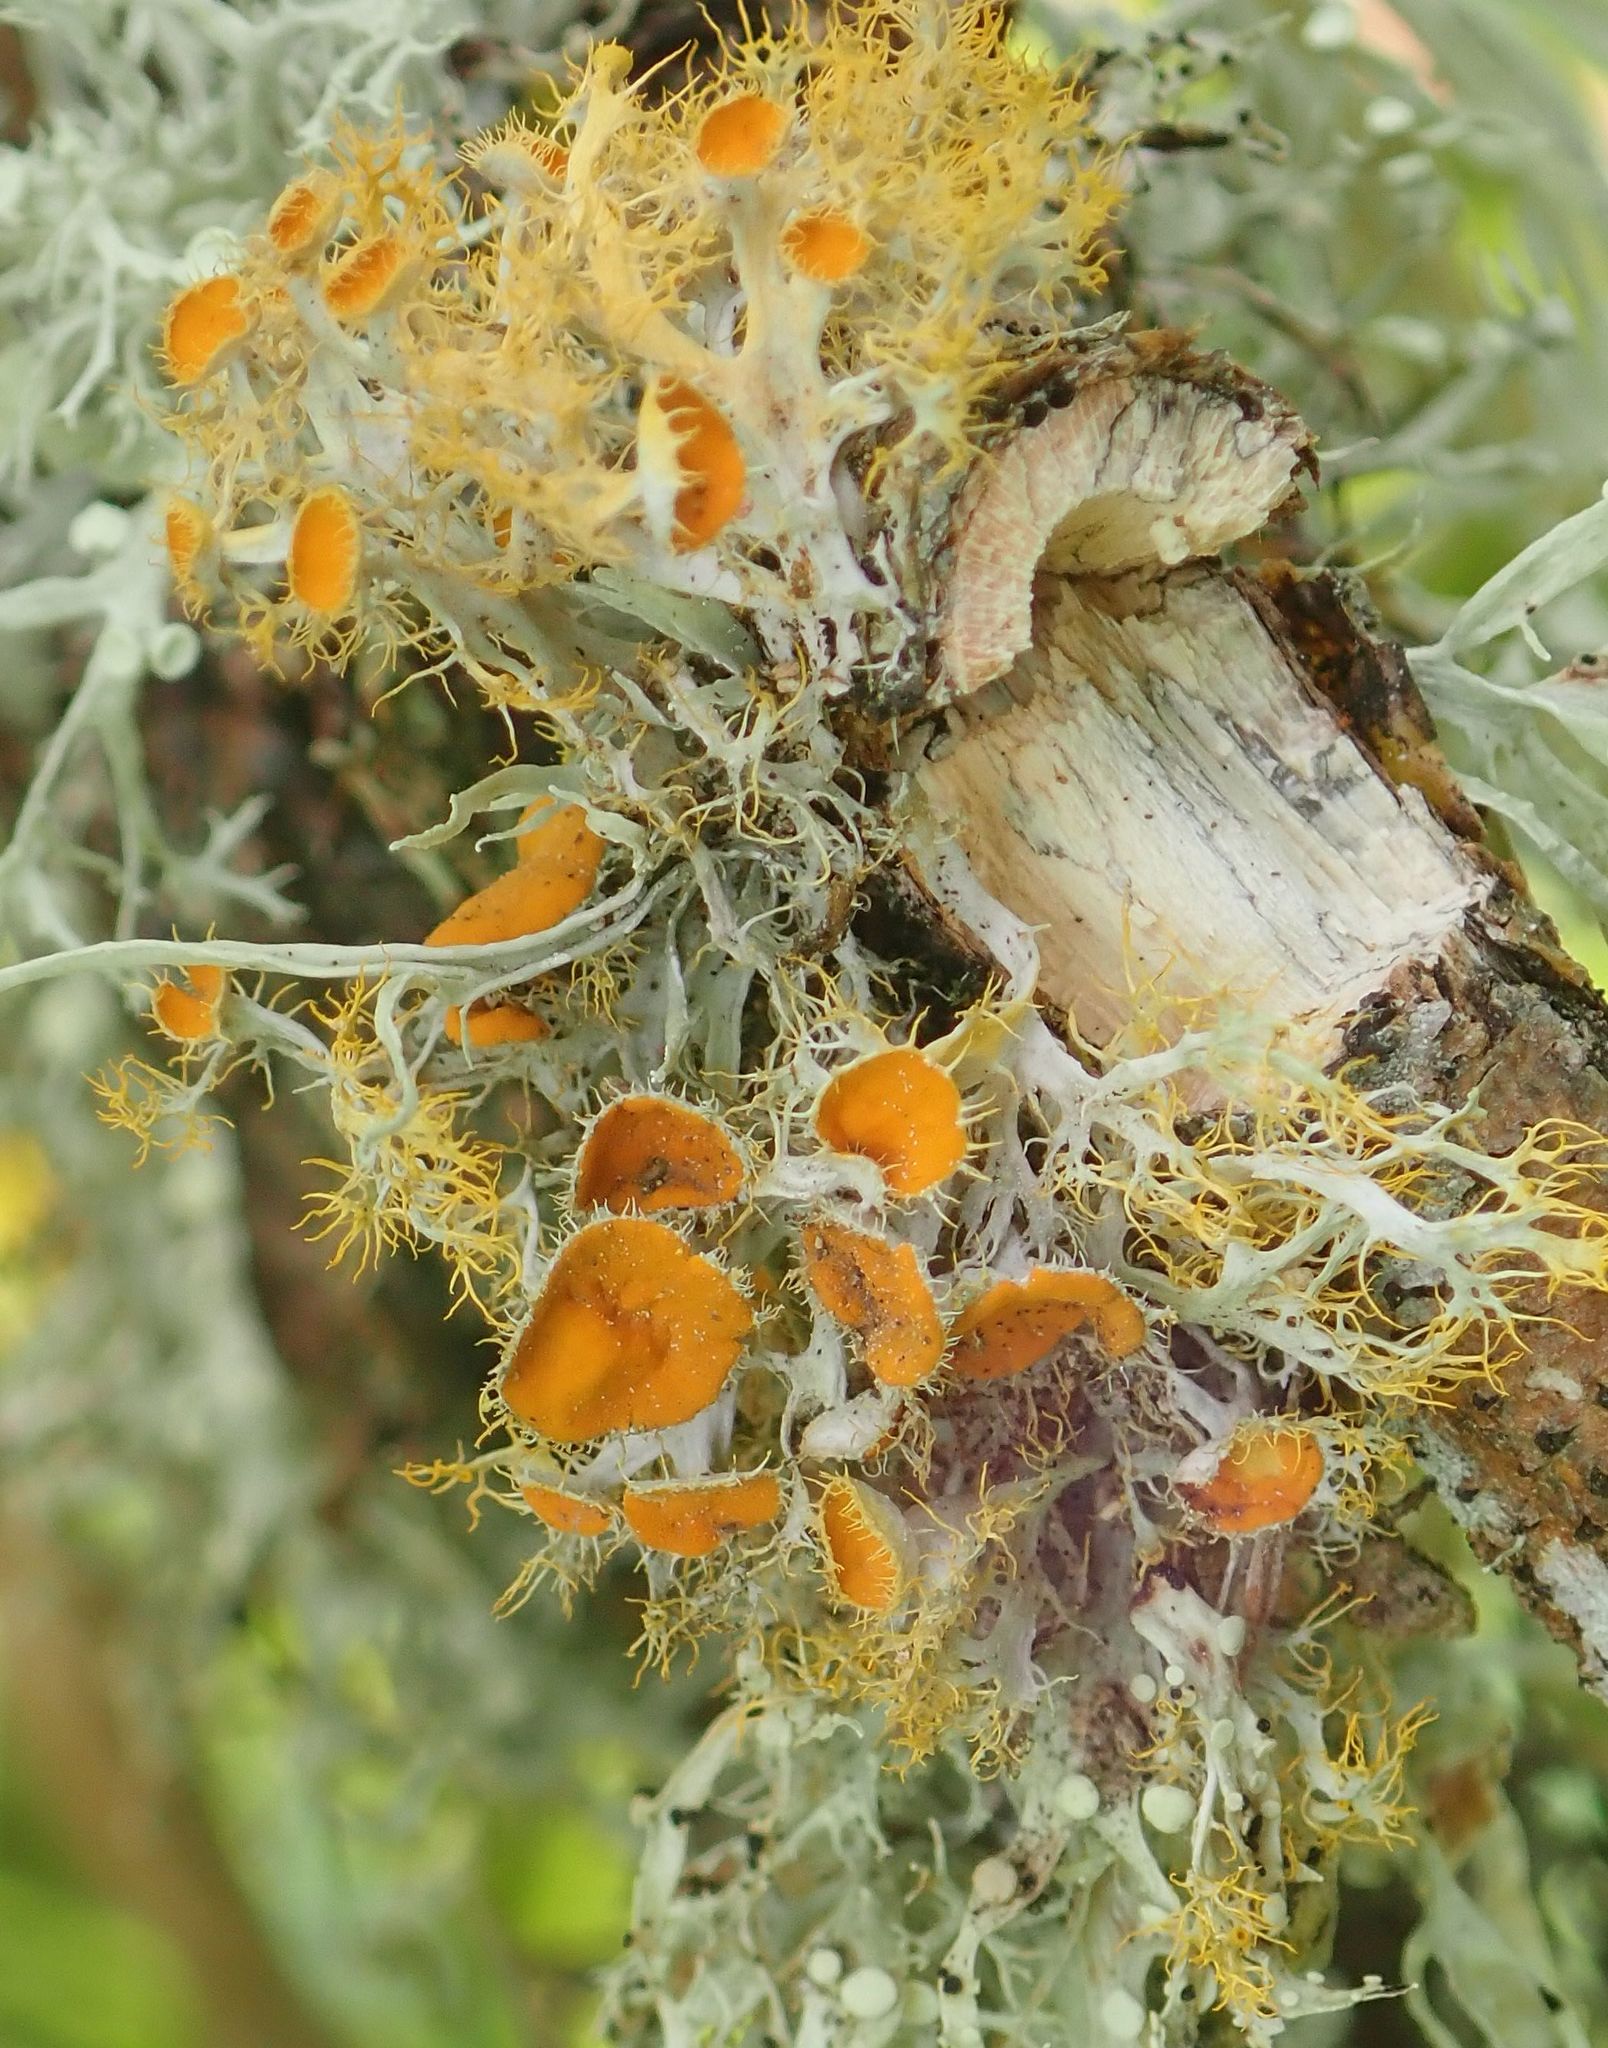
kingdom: Fungi
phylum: Ascomycota
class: Lecanoromycetes
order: Teloschistales
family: Teloschistaceae
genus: Niorma
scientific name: Niorma chrysophthalma
